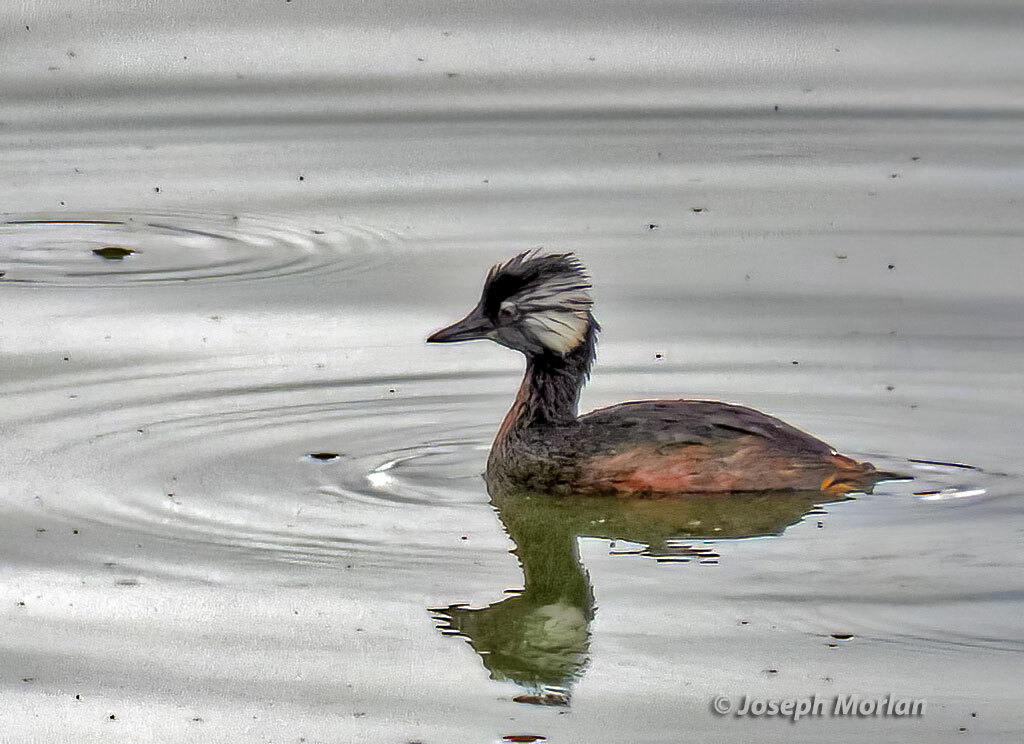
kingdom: Animalia
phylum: Chordata
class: Aves
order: Podicipediformes
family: Podicipedidae
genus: Rollandia
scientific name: Rollandia rolland
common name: White-tufted grebe
